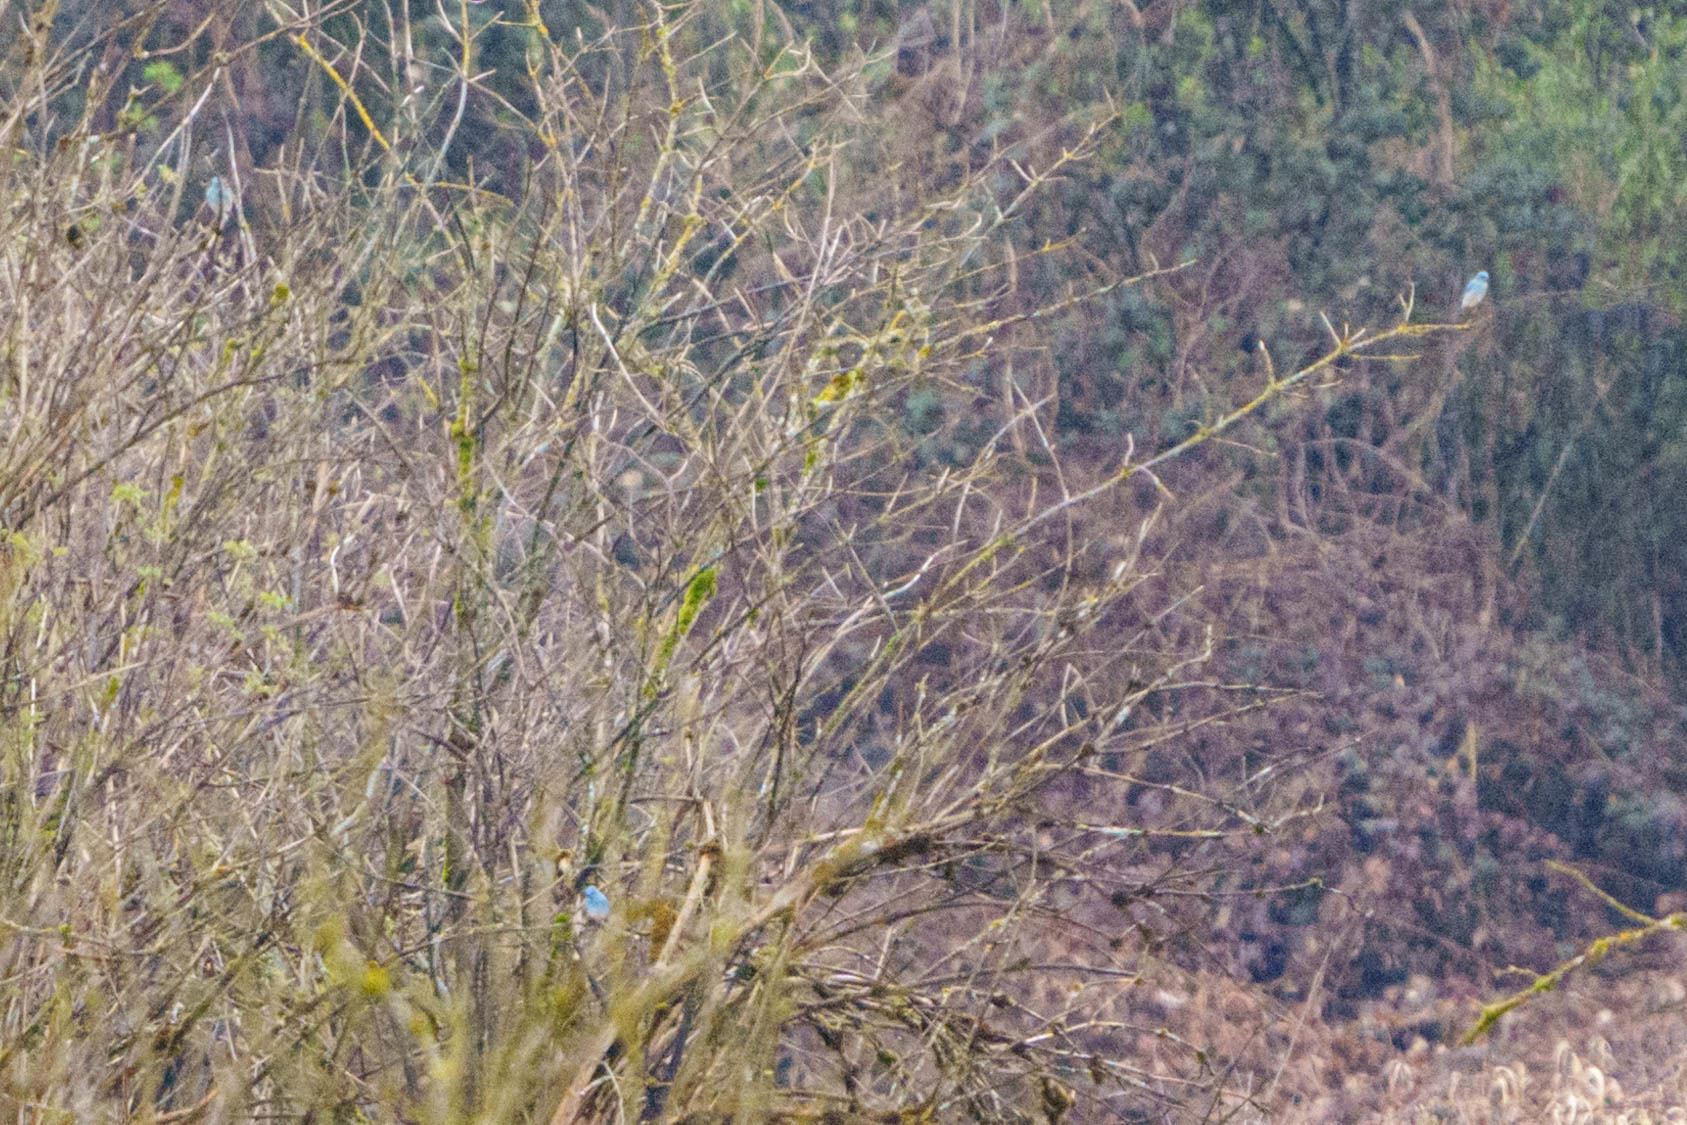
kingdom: Animalia
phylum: Chordata
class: Aves
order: Passeriformes
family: Turdidae
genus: Sialia
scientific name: Sialia currucoides
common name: Mountain bluebird
